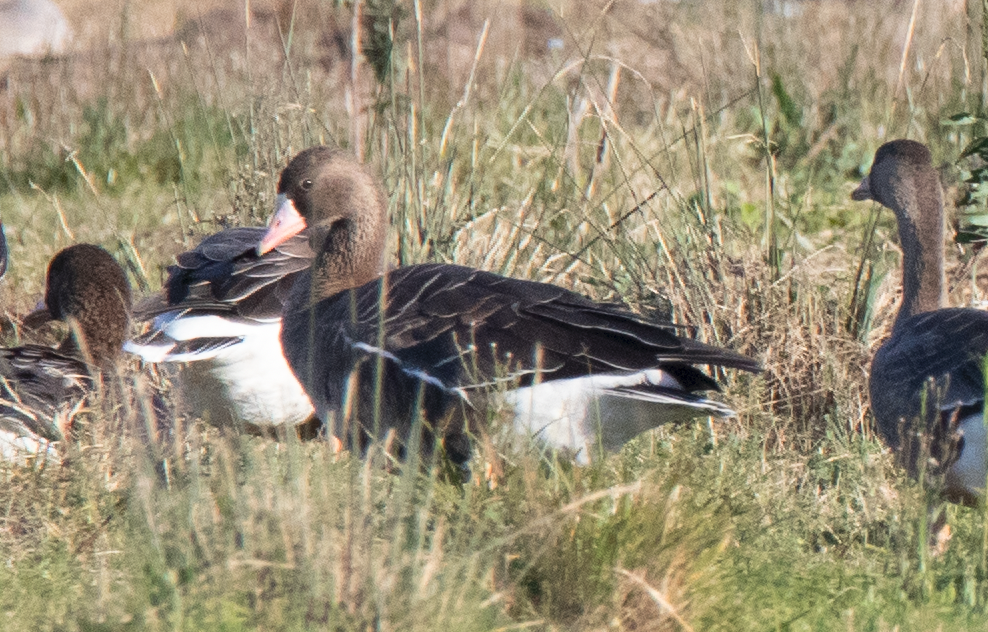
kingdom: Animalia
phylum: Chordata
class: Aves
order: Anseriformes
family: Anatidae
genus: Anser
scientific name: Anser albifrons
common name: Greater white-fronted goose
